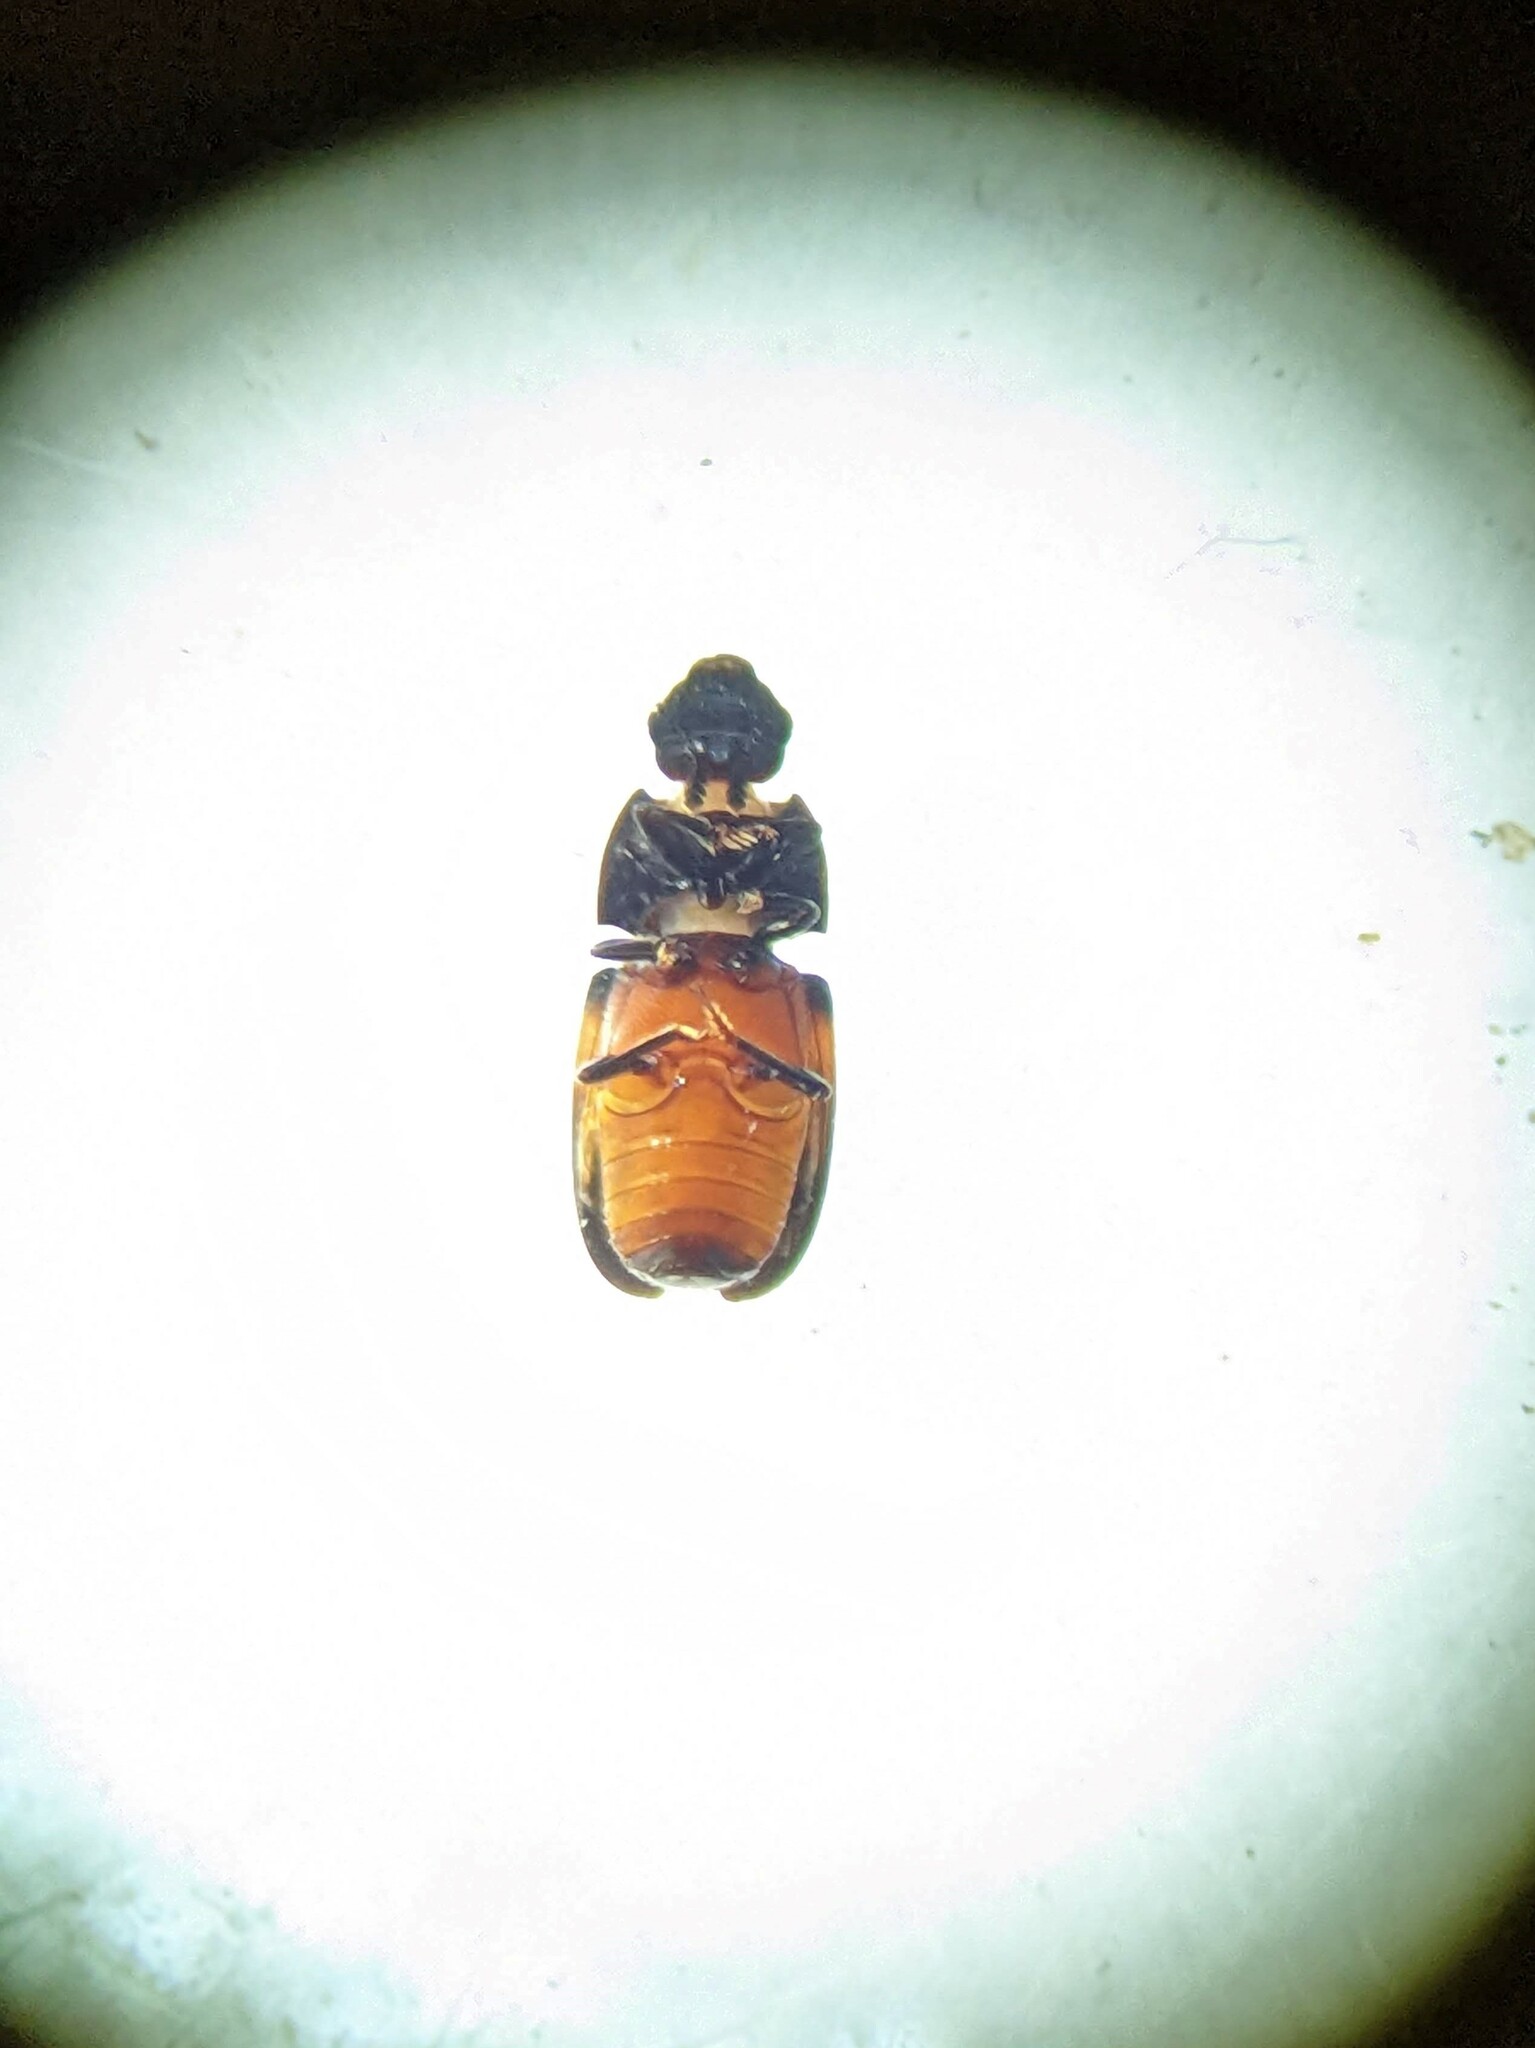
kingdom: Animalia
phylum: Arthropoda
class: Insecta
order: Coleoptera
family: Nitidulidae
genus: Glischrochilus
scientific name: Glischrochilus sanguinolentus
